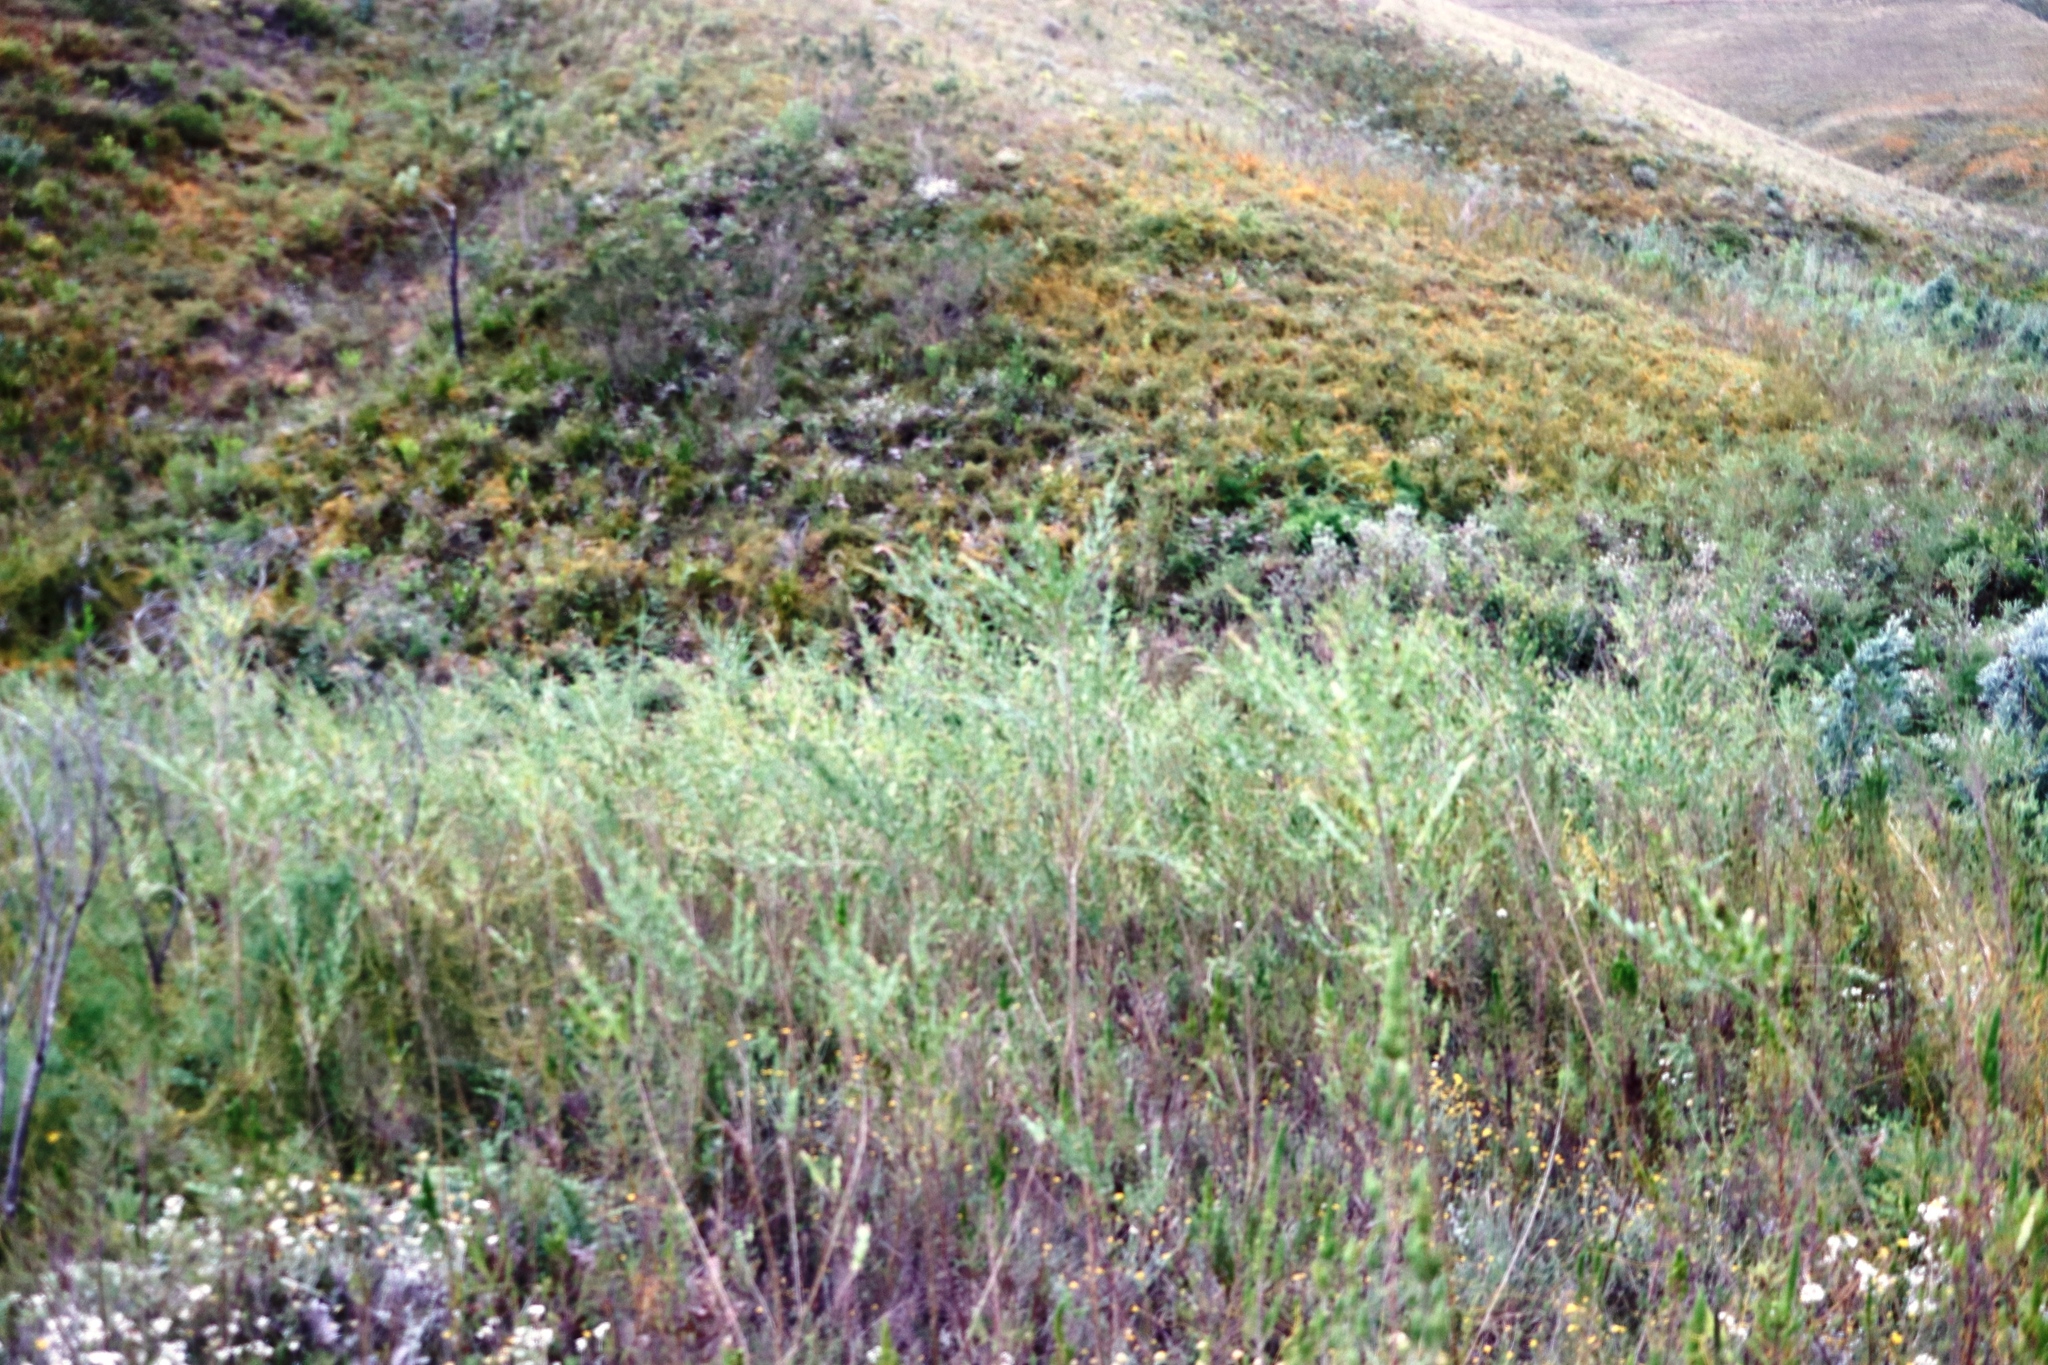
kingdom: Plantae
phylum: Tracheophyta
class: Magnoliopsida
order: Fabales
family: Fabaceae
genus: Psoralea
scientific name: Psoralea spicata
